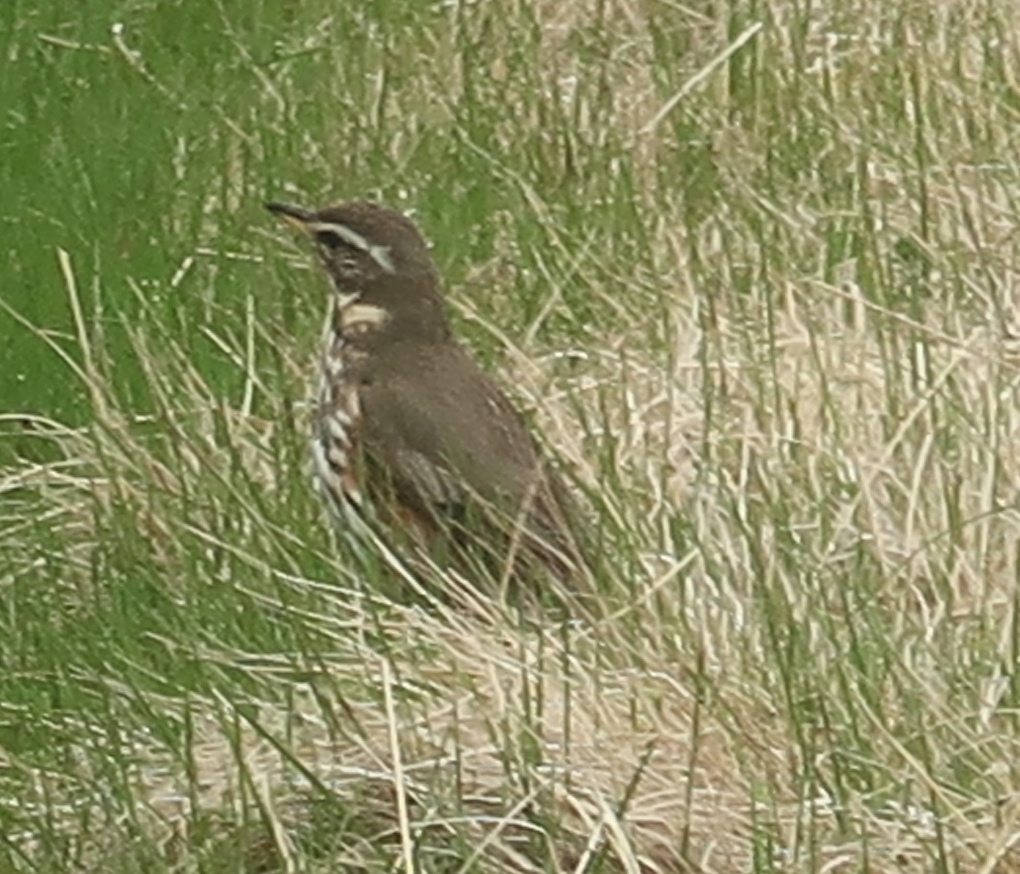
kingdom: Animalia
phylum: Chordata
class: Aves
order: Passeriformes
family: Turdidae
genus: Turdus
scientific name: Turdus iliacus
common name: Redwing
